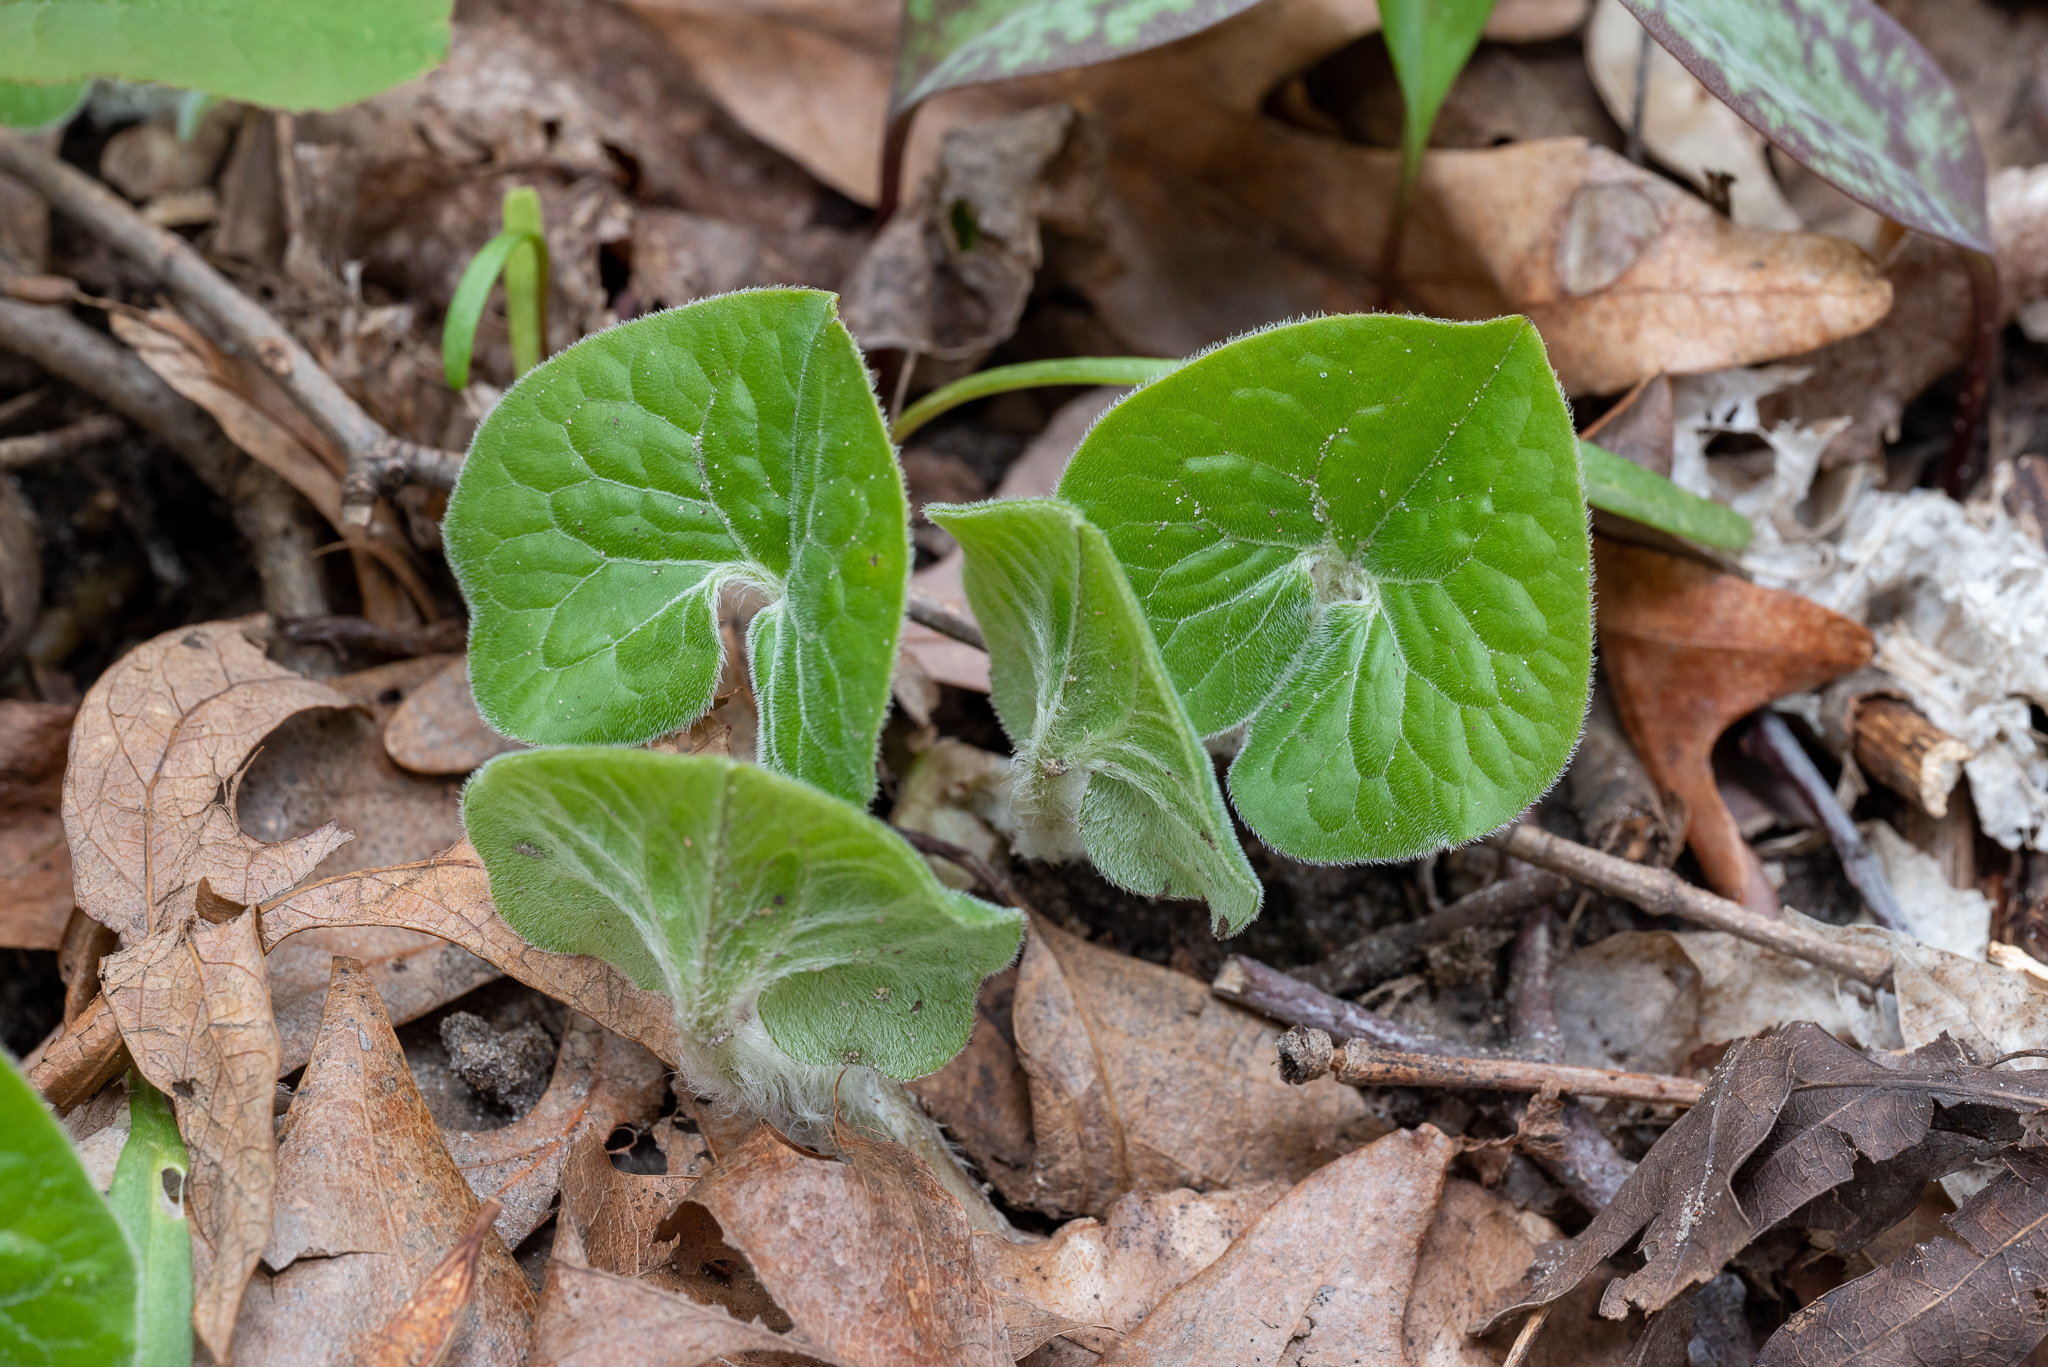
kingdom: Plantae
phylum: Tracheophyta
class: Magnoliopsida
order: Piperales
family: Aristolochiaceae
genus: Asarum
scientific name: Asarum canadense
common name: Wild ginger
